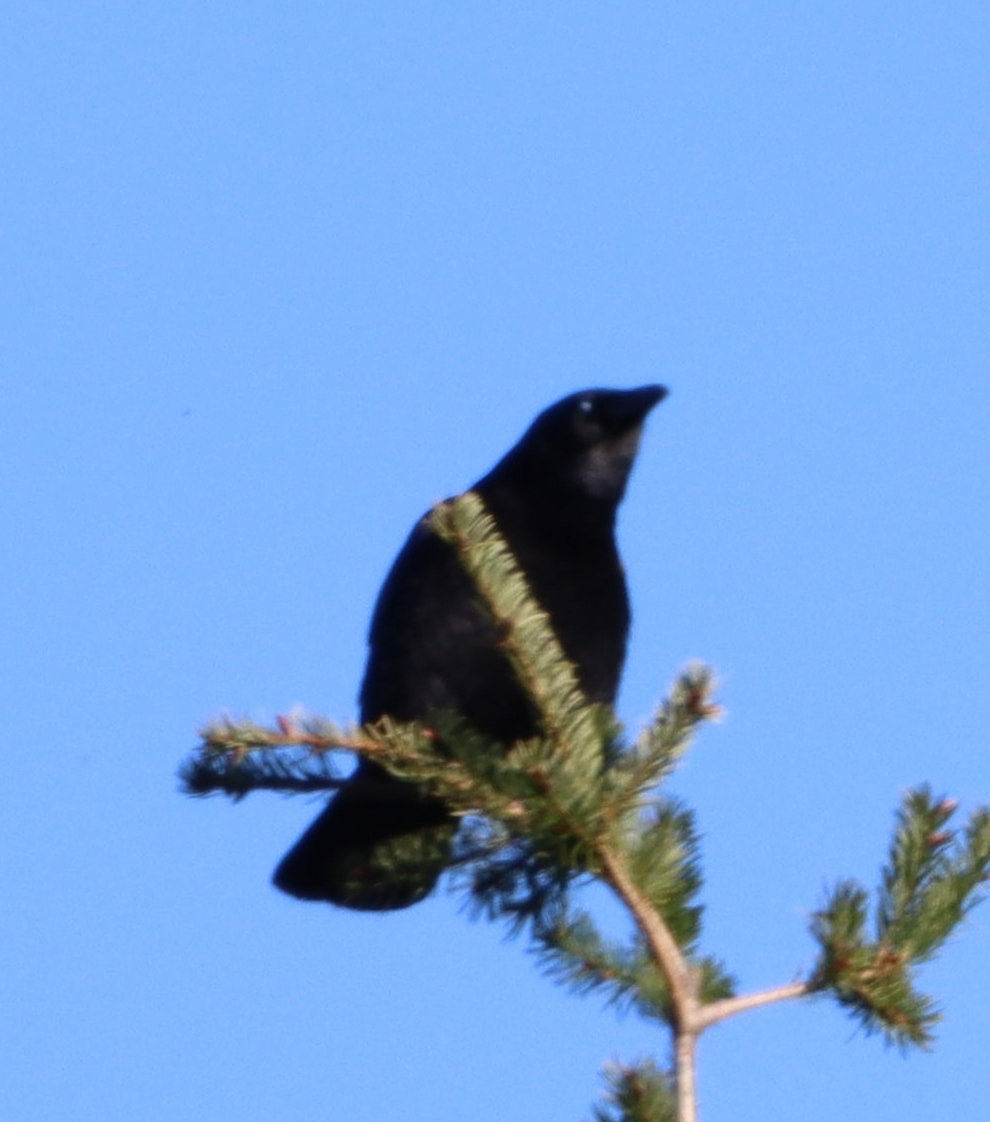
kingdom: Animalia
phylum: Chordata
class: Aves
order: Passeriformes
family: Corvidae
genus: Corvus
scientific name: Corvus brachyrhynchos
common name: American crow
